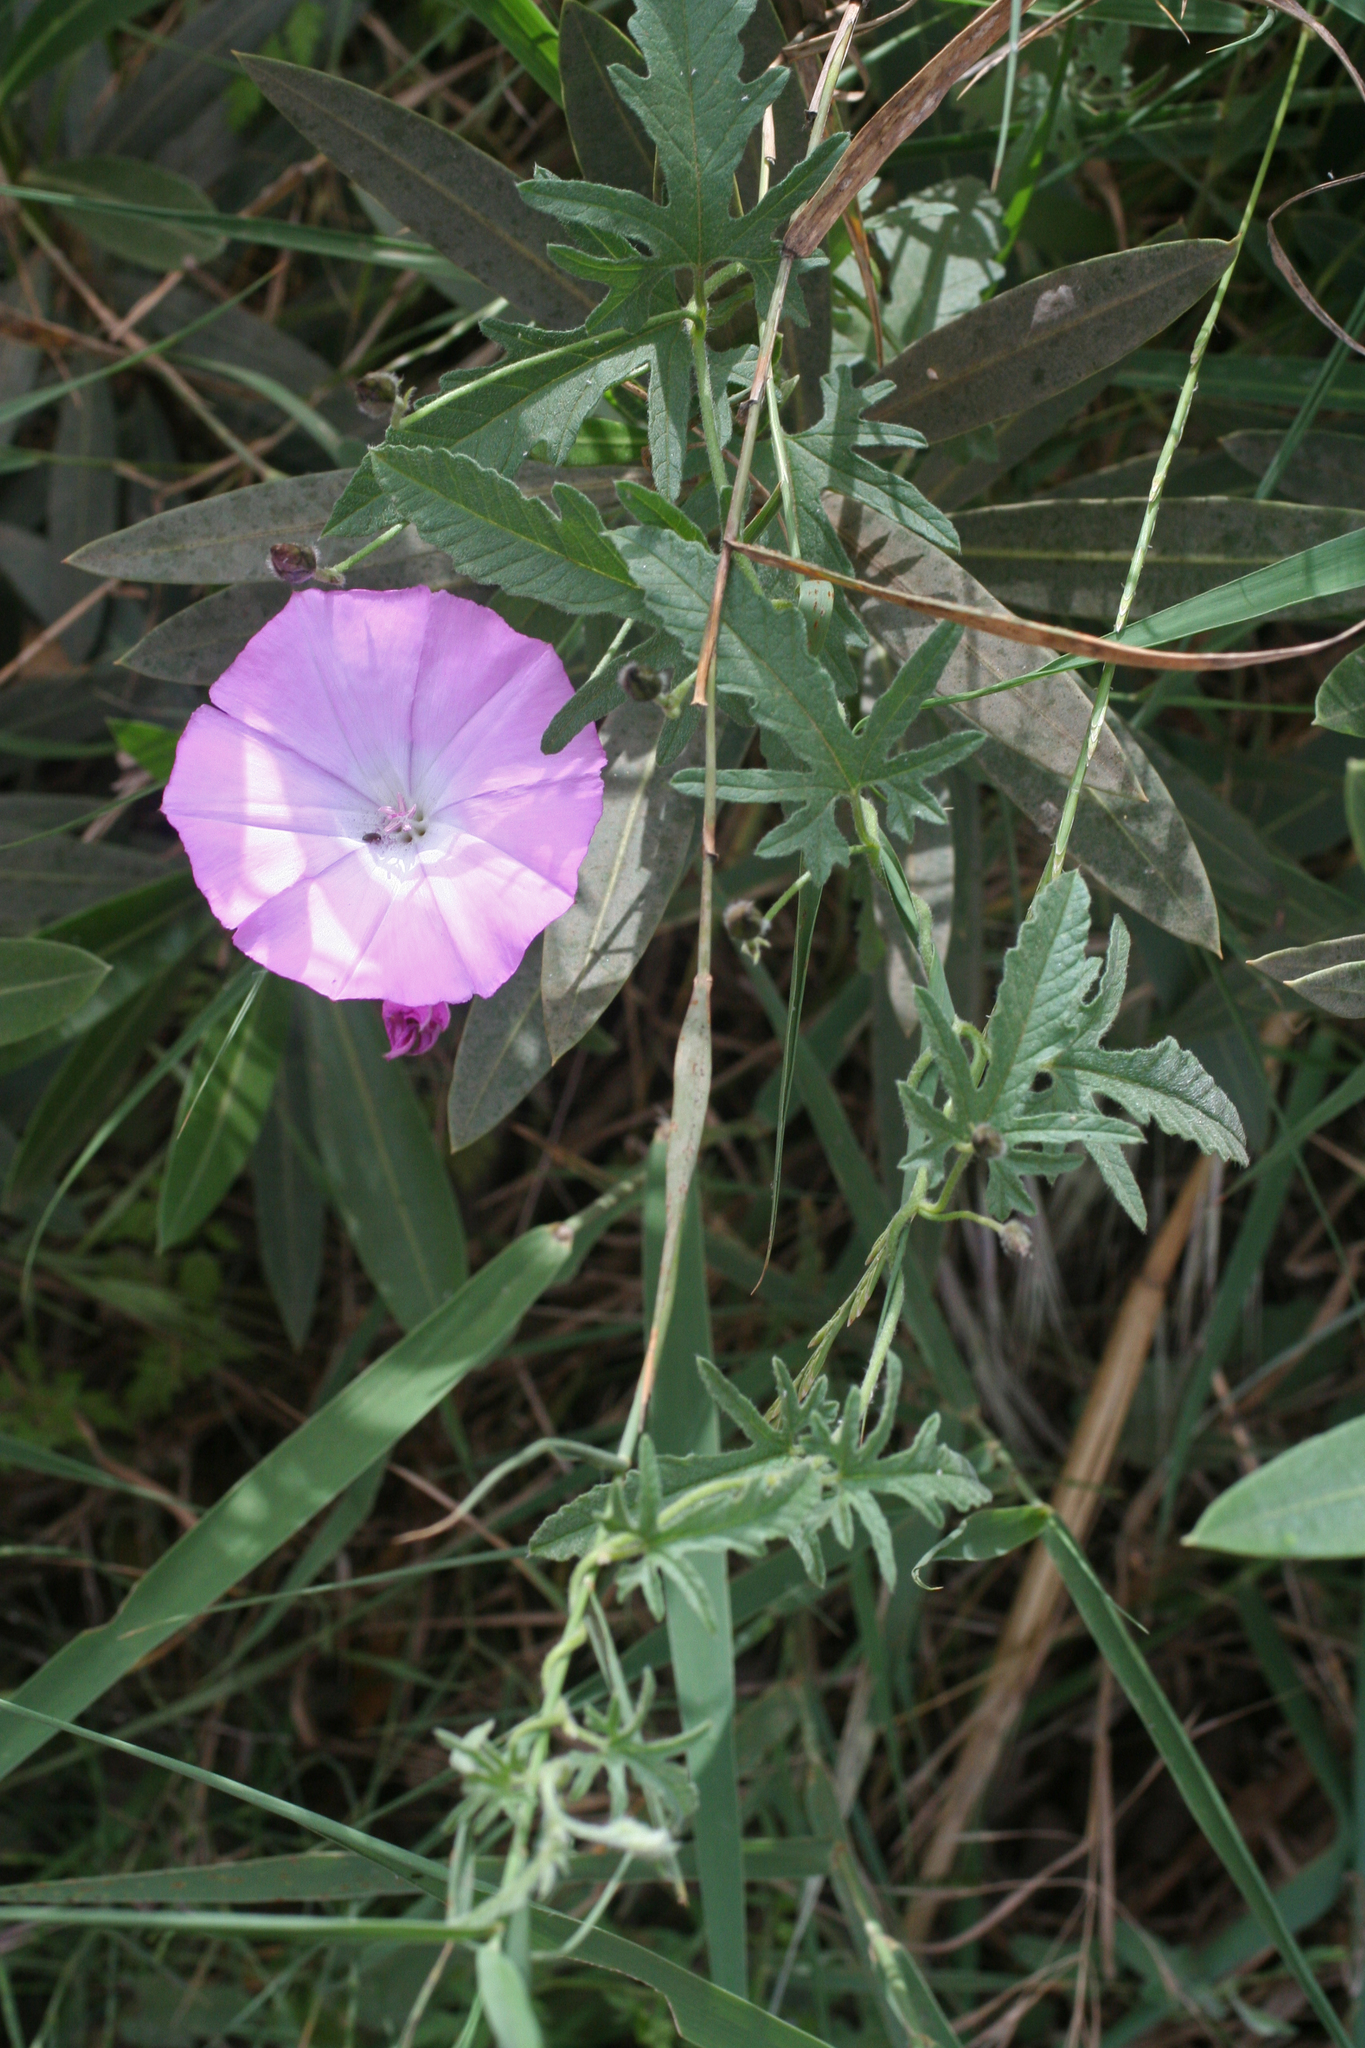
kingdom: Plantae
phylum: Tracheophyta
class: Magnoliopsida
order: Solanales
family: Convolvulaceae
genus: Convolvulus
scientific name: Convolvulus althaeoides
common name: Mallow bindweed
